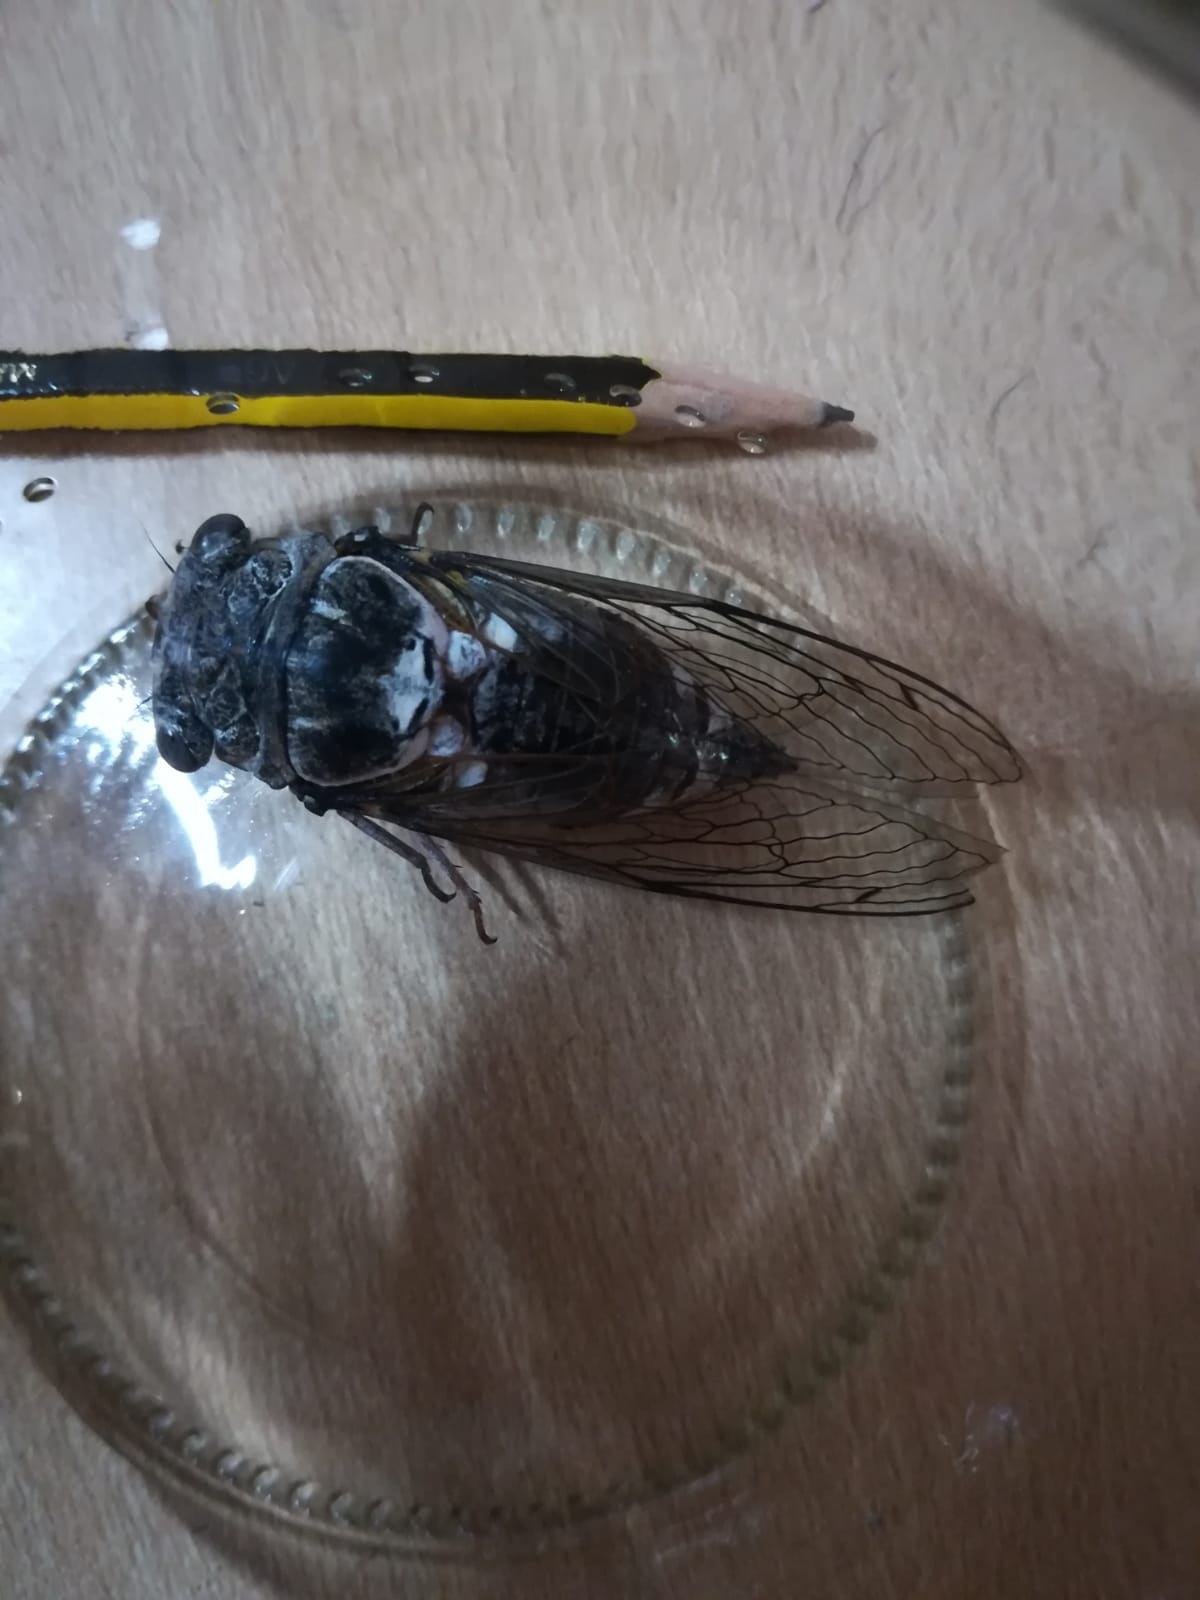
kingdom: Animalia
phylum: Arthropoda
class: Insecta
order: Hemiptera
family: Cicadidae
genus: Lyristes
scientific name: Lyristes plebejus
